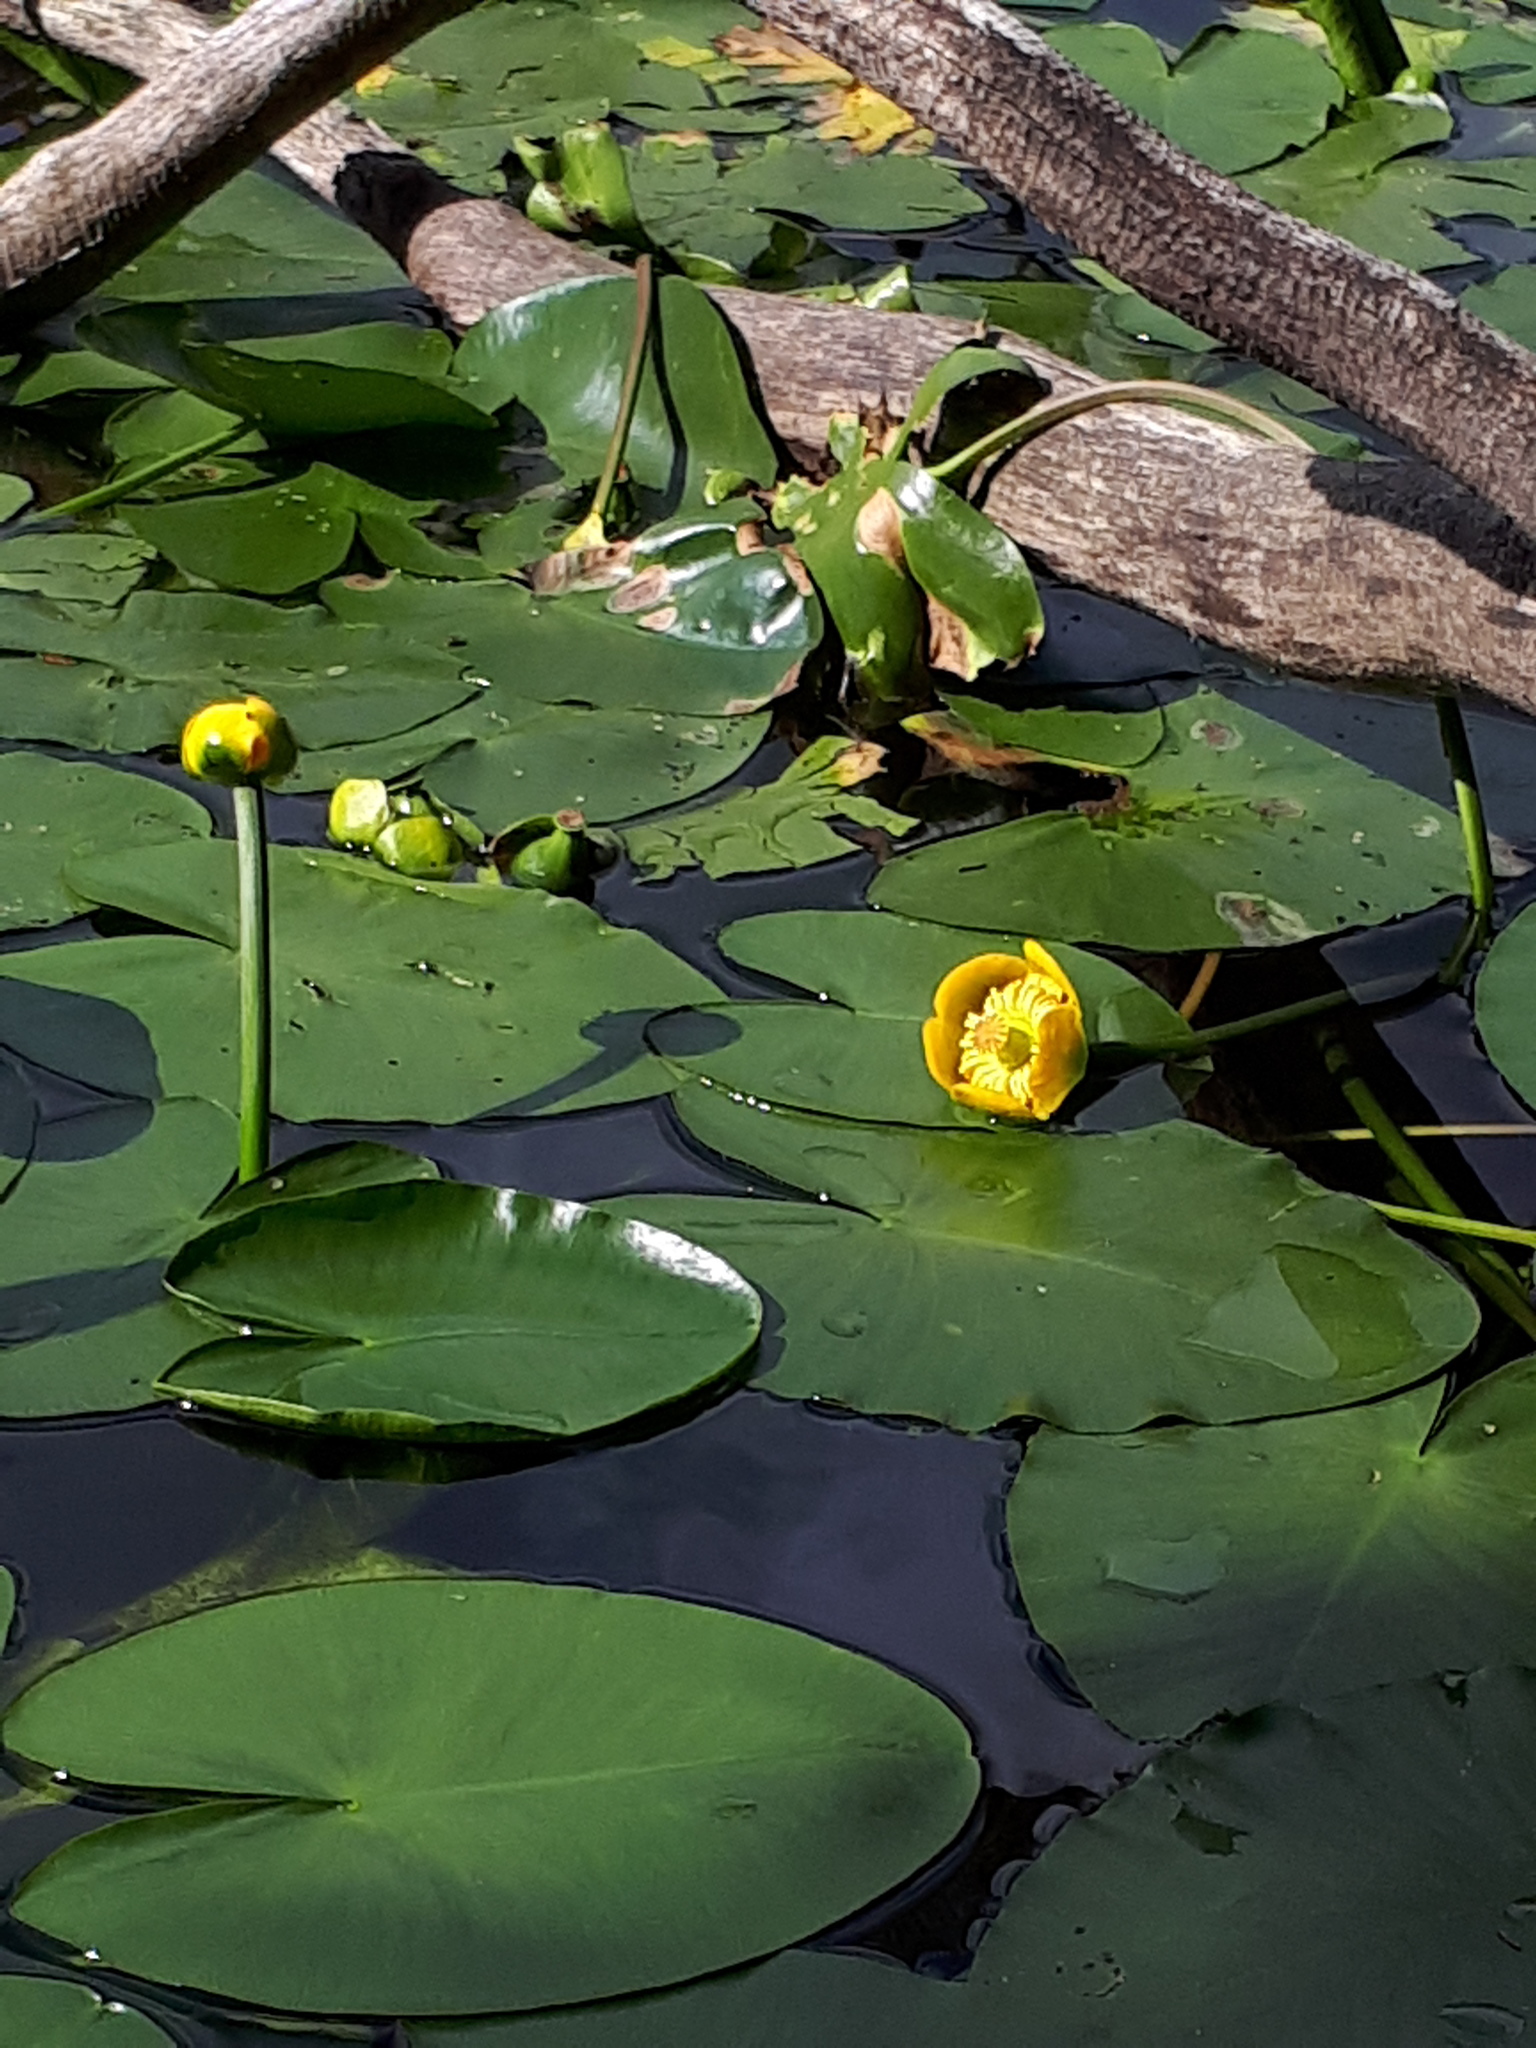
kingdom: Plantae
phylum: Tracheophyta
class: Magnoliopsida
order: Nymphaeales
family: Nymphaeaceae
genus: Nuphar
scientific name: Nuphar lutea
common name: Yellow water-lily
